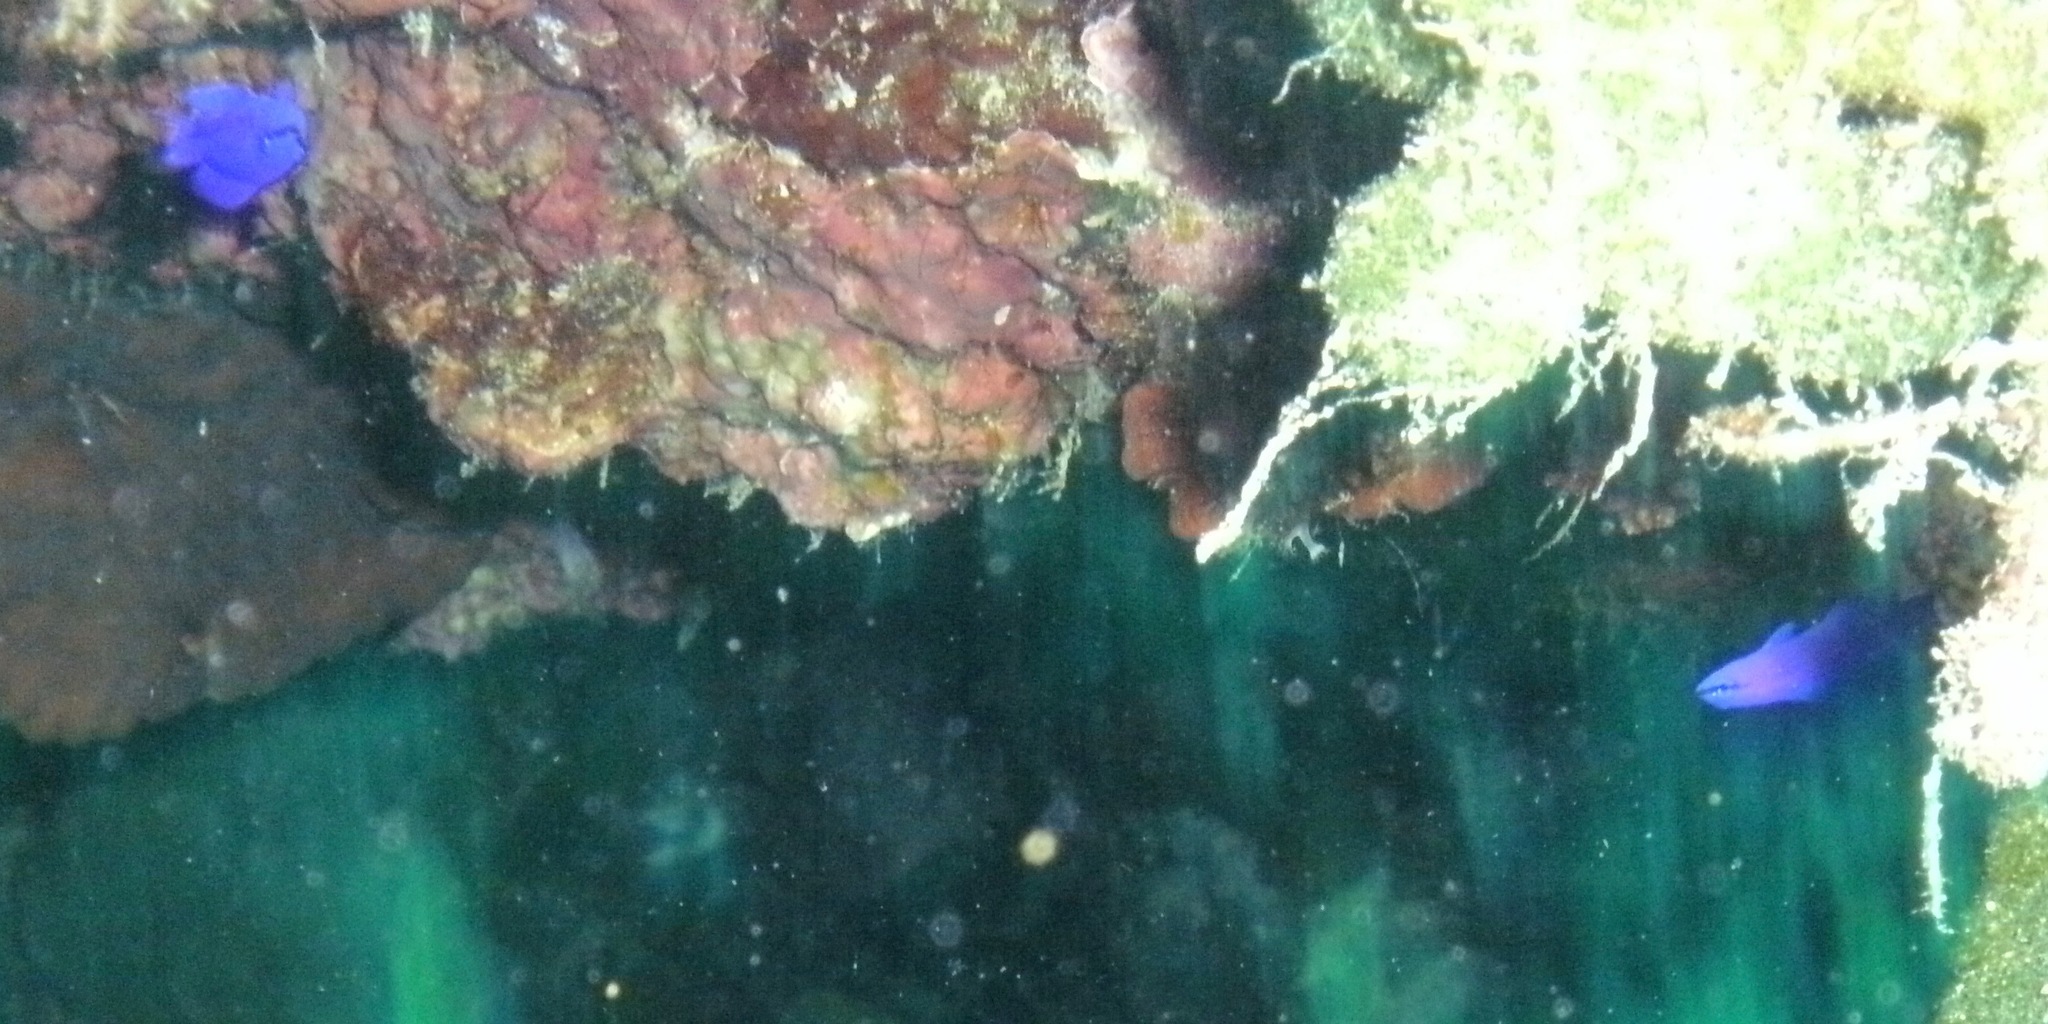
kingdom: Animalia
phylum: Chordata
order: Perciformes
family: Pseudochromidae
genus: Pseudochromis
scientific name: Pseudochromis fridmani
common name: Orchid dottyback
